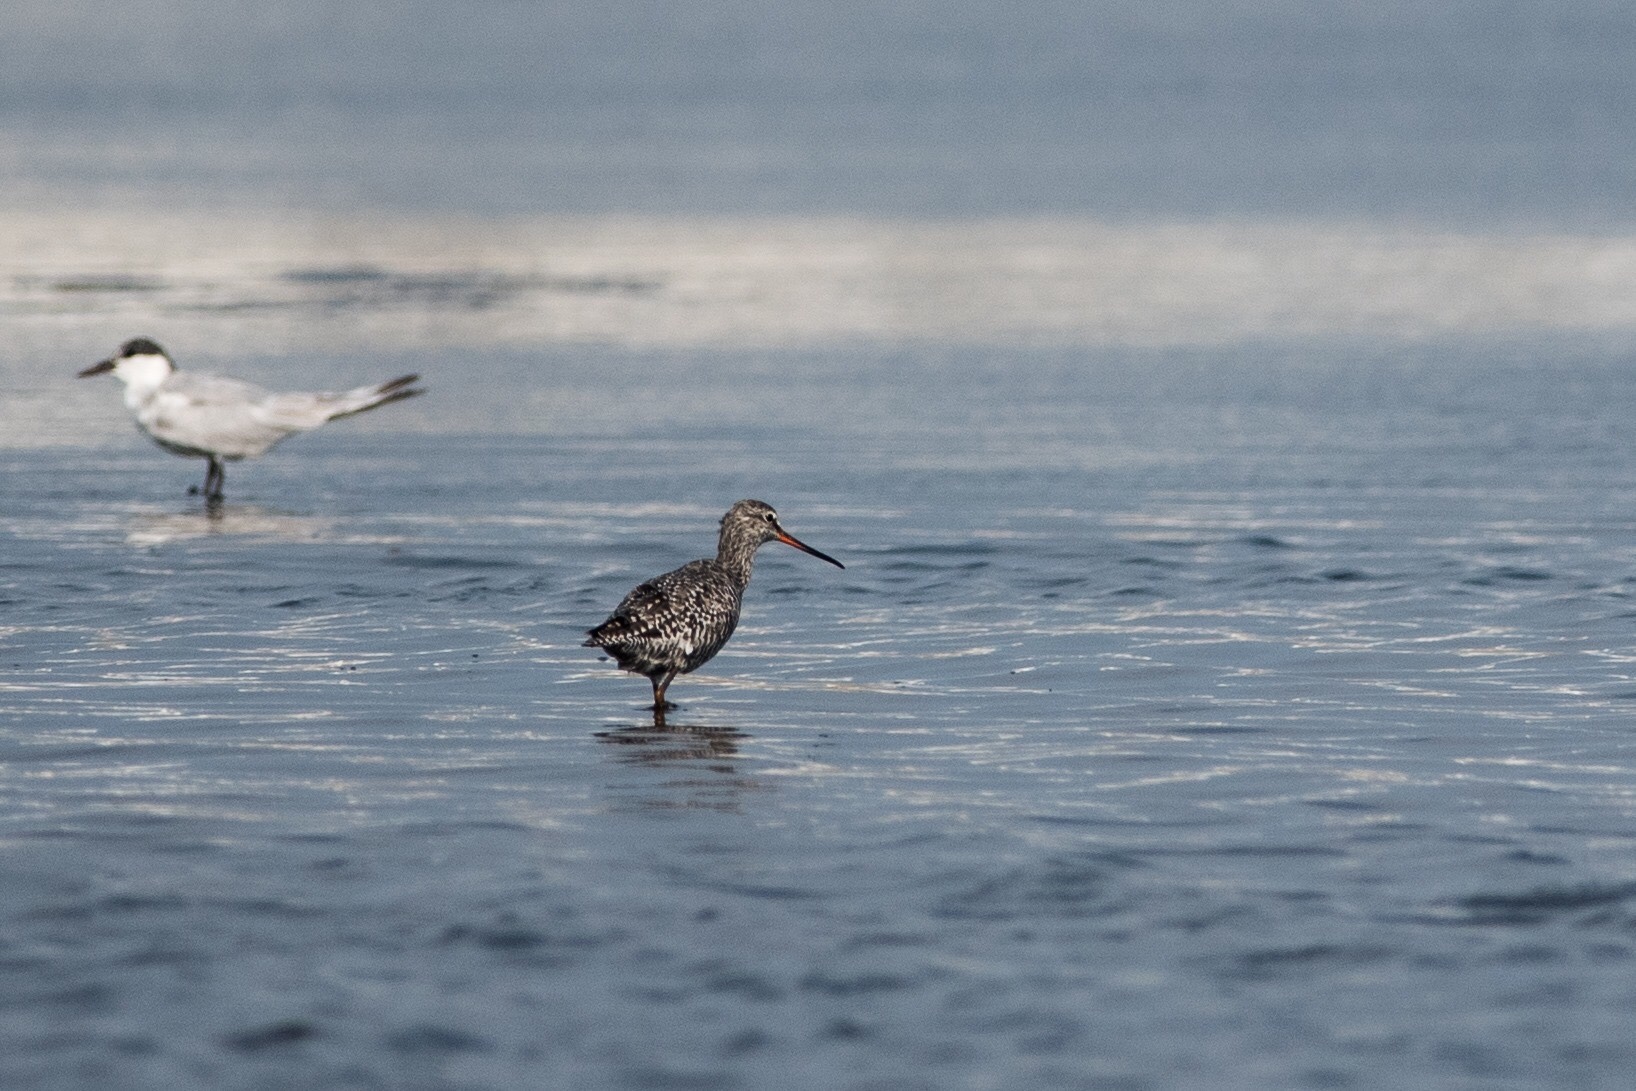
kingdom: Animalia
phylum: Chordata
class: Aves
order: Charadriiformes
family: Scolopacidae
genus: Tringa
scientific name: Tringa erythropus
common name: Spotted redshank
